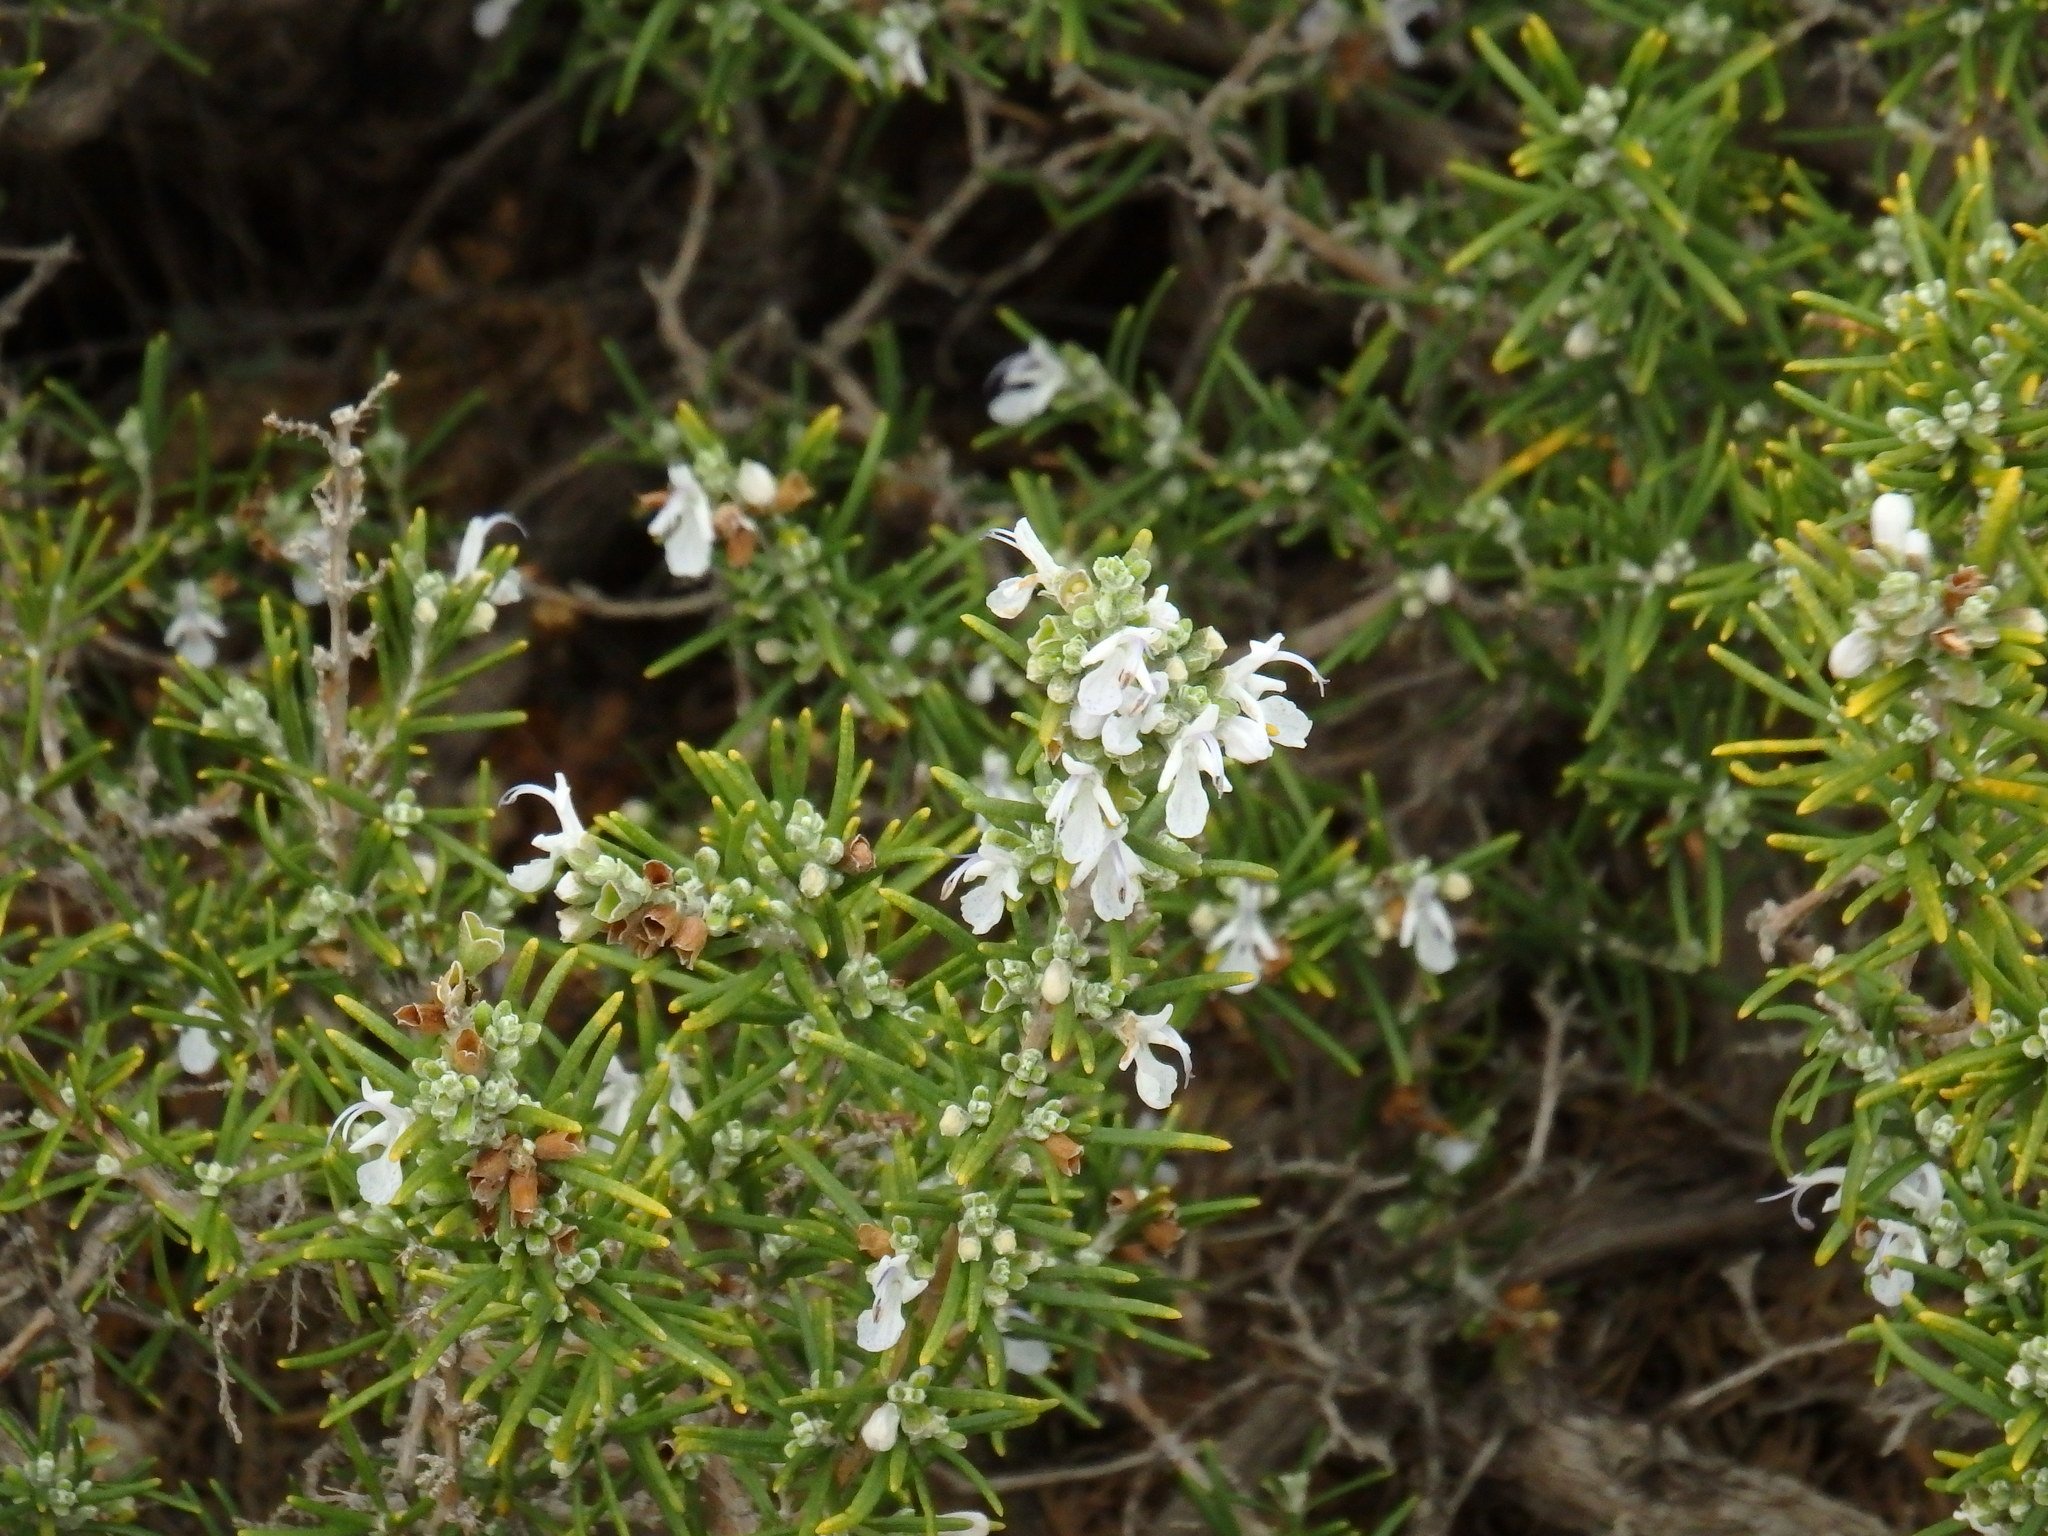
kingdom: Plantae
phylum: Tracheophyta
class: Magnoliopsida
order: Lamiales
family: Lamiaceae
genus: Salvia
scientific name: Salvia rosmarinus
